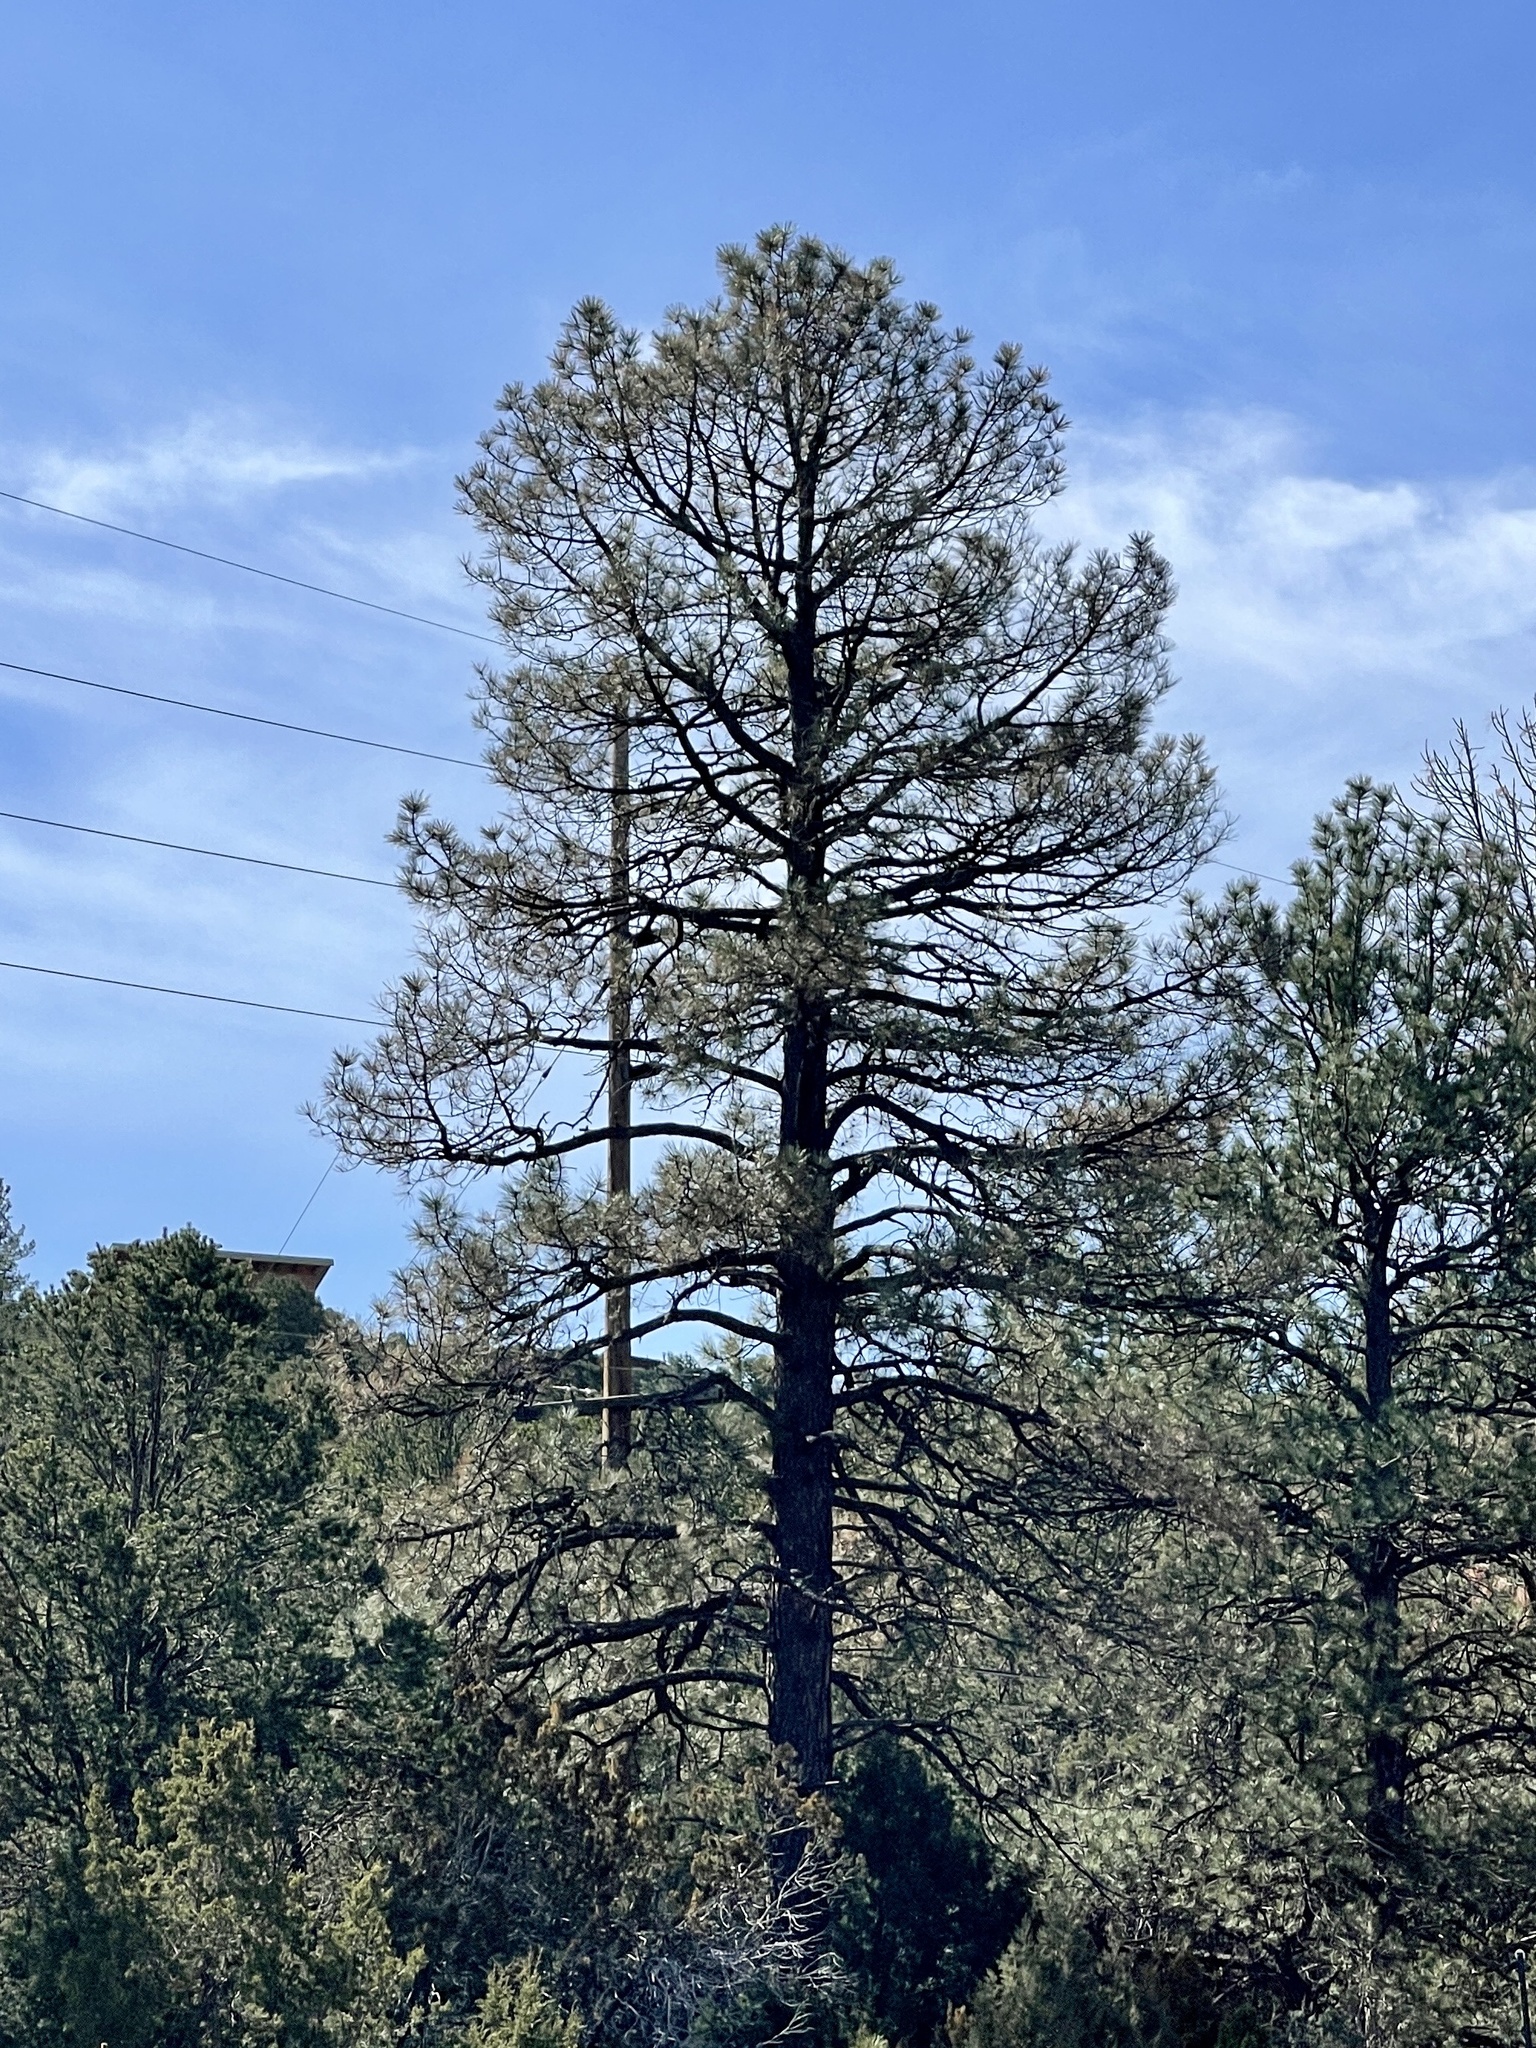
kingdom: Plantae
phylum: Tracheophyta
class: Pinopsida
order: Pinales
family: Pinaceae
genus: Pinus
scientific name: Pinus ponderosa
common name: Western yellow-pine
